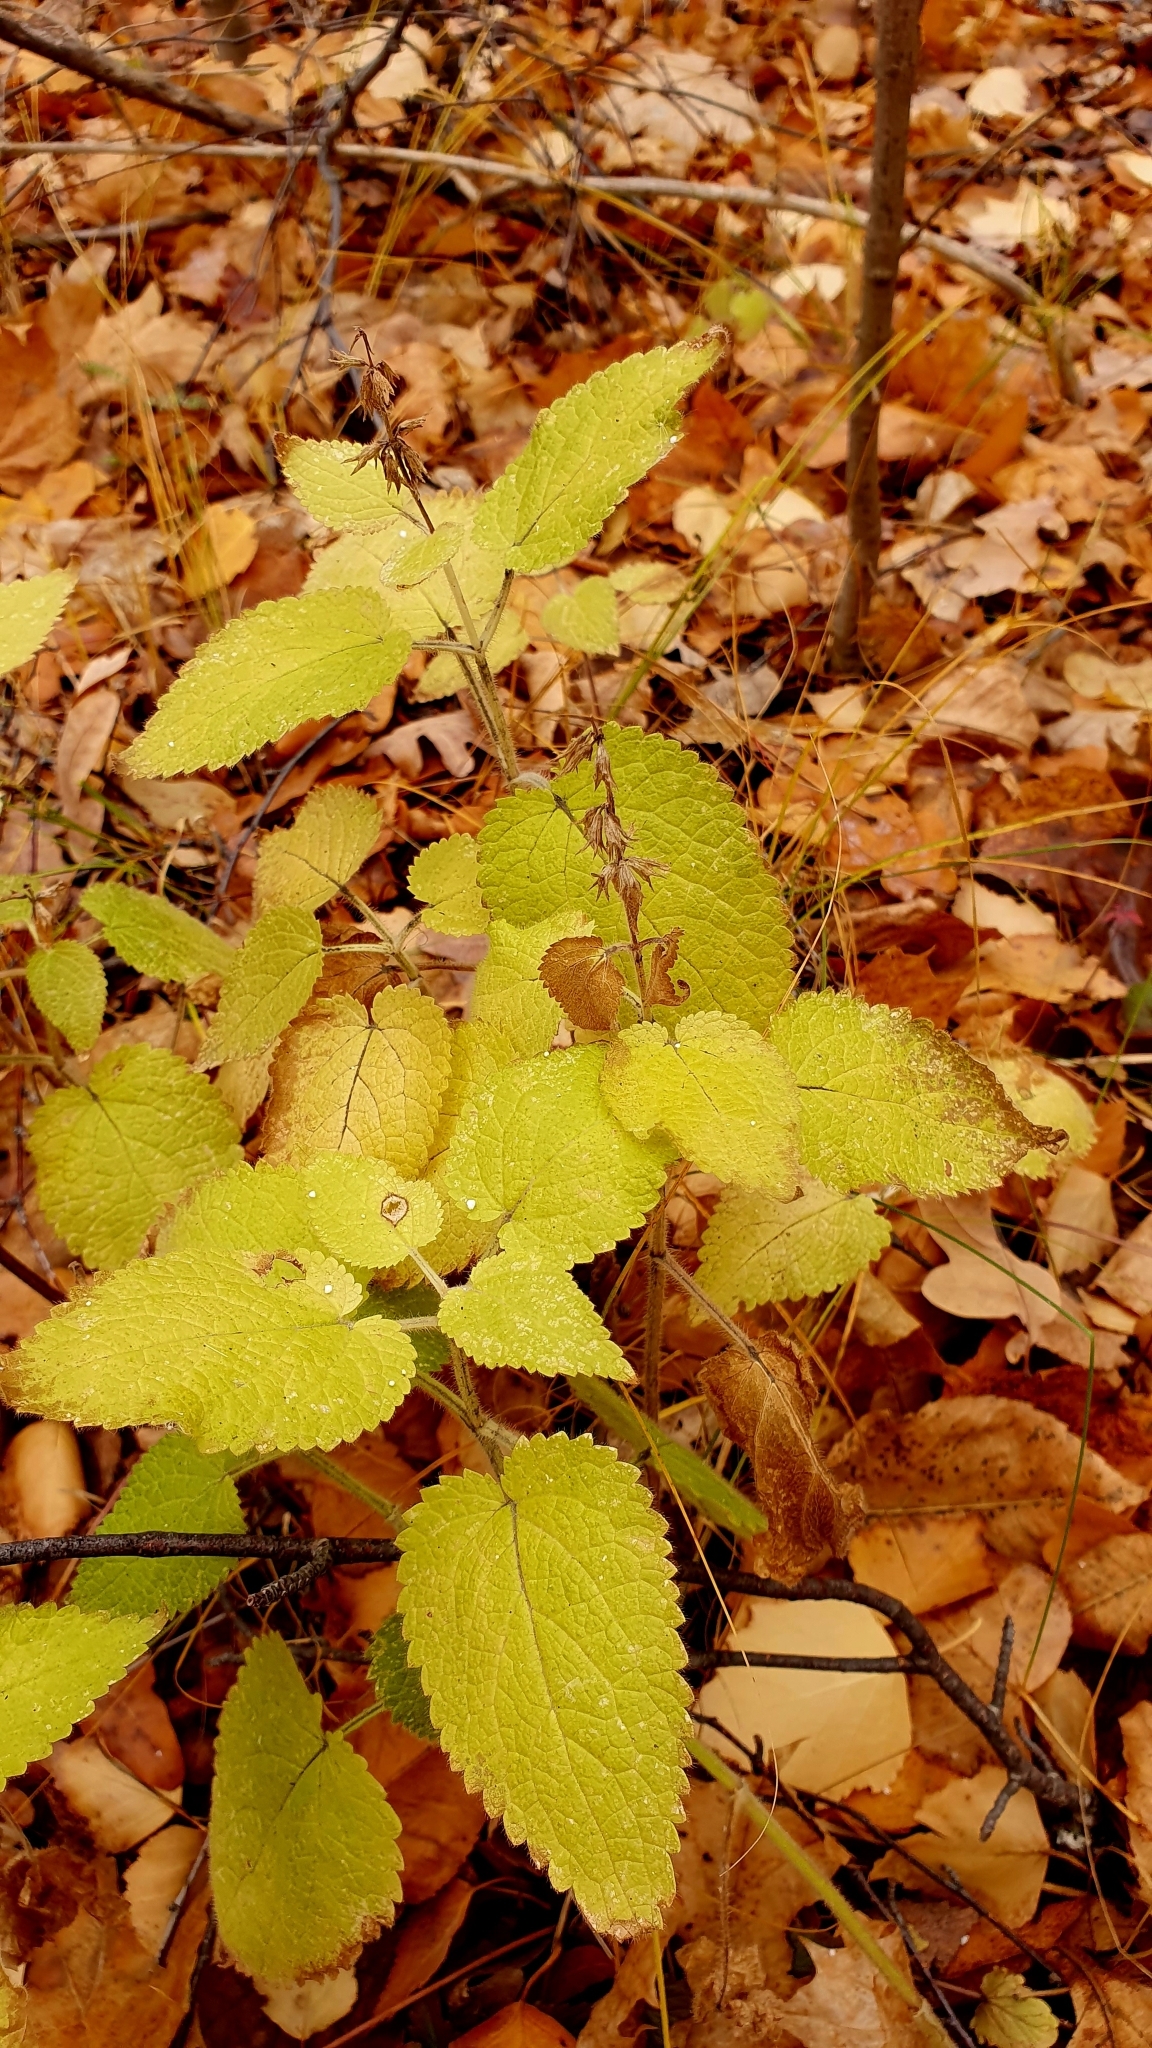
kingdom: Plantae
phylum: Tracheophyta
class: Magnoliopsida
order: Lamiales
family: Lamiaceae
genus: Stachys
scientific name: Stachys sylvatica
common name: Hedge woundwort
